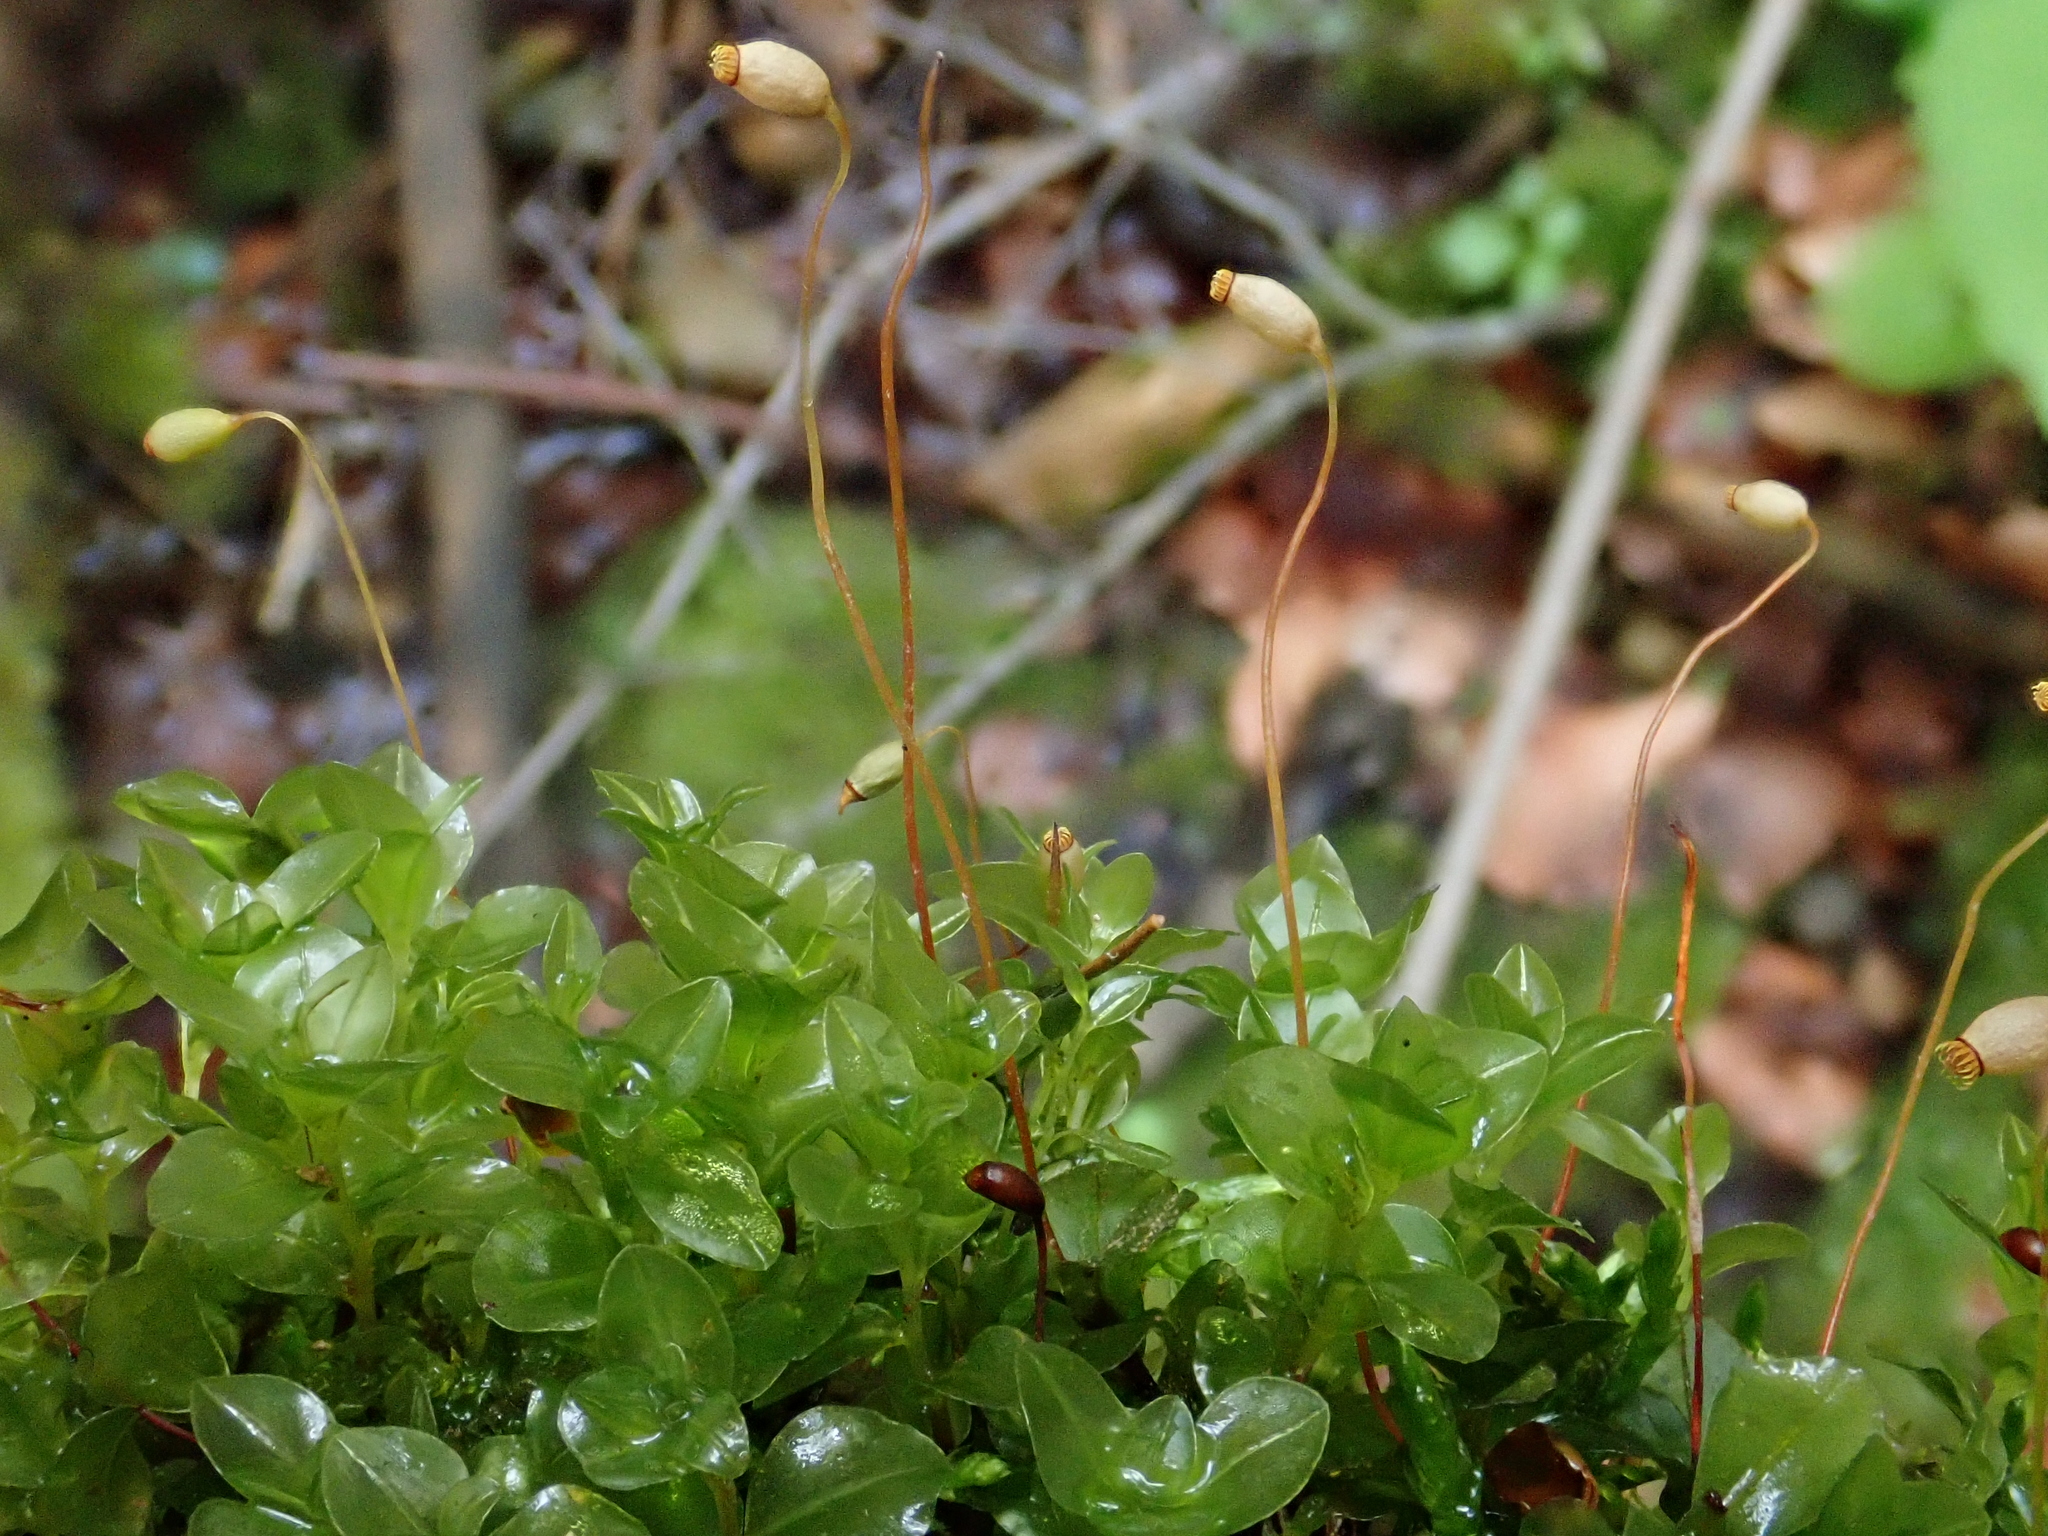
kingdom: Plantae
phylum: Bryophyta
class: Bryopsida
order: Bryales
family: Mniaceae
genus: Rhizomnium
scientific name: Rhizomnium punctatum
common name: Dotted leafy moss
